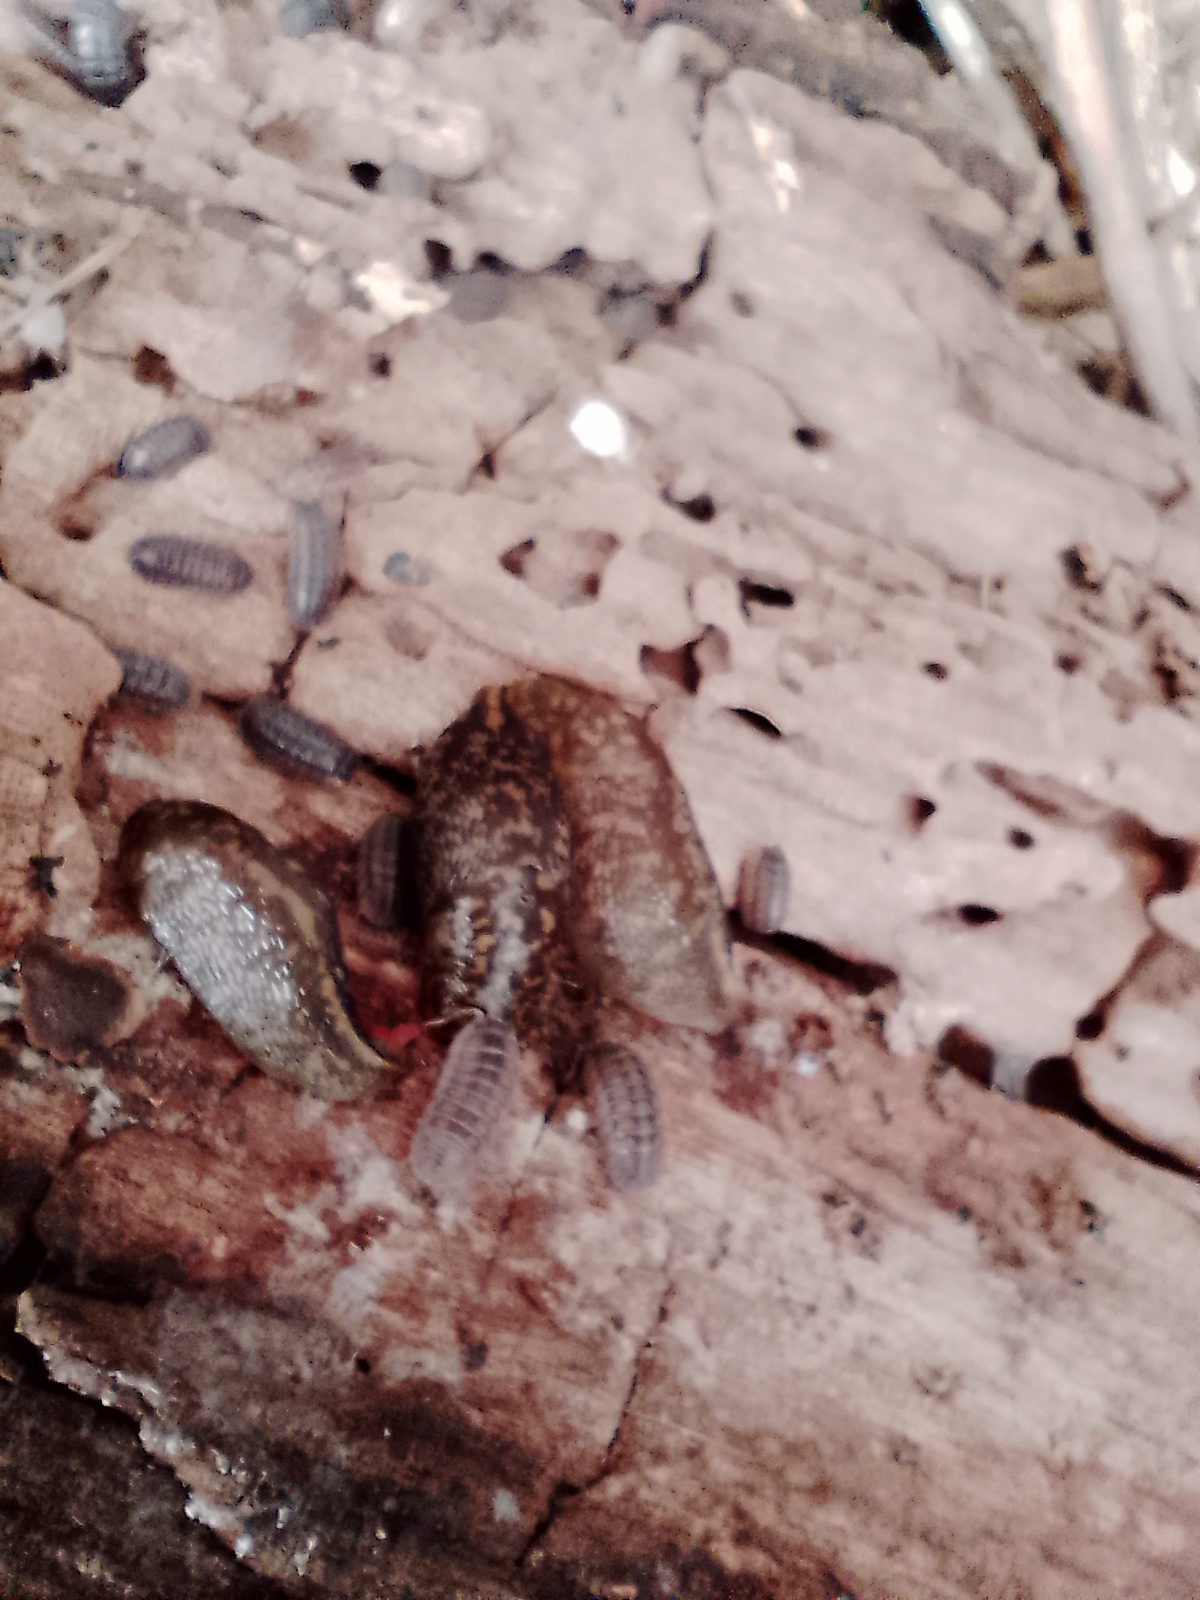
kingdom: Animalia
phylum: Mollusca
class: Gastropoda
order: Stylommatophora
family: Limacidae
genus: Limacus
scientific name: Limacus flavus
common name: Yellow gardenslug
